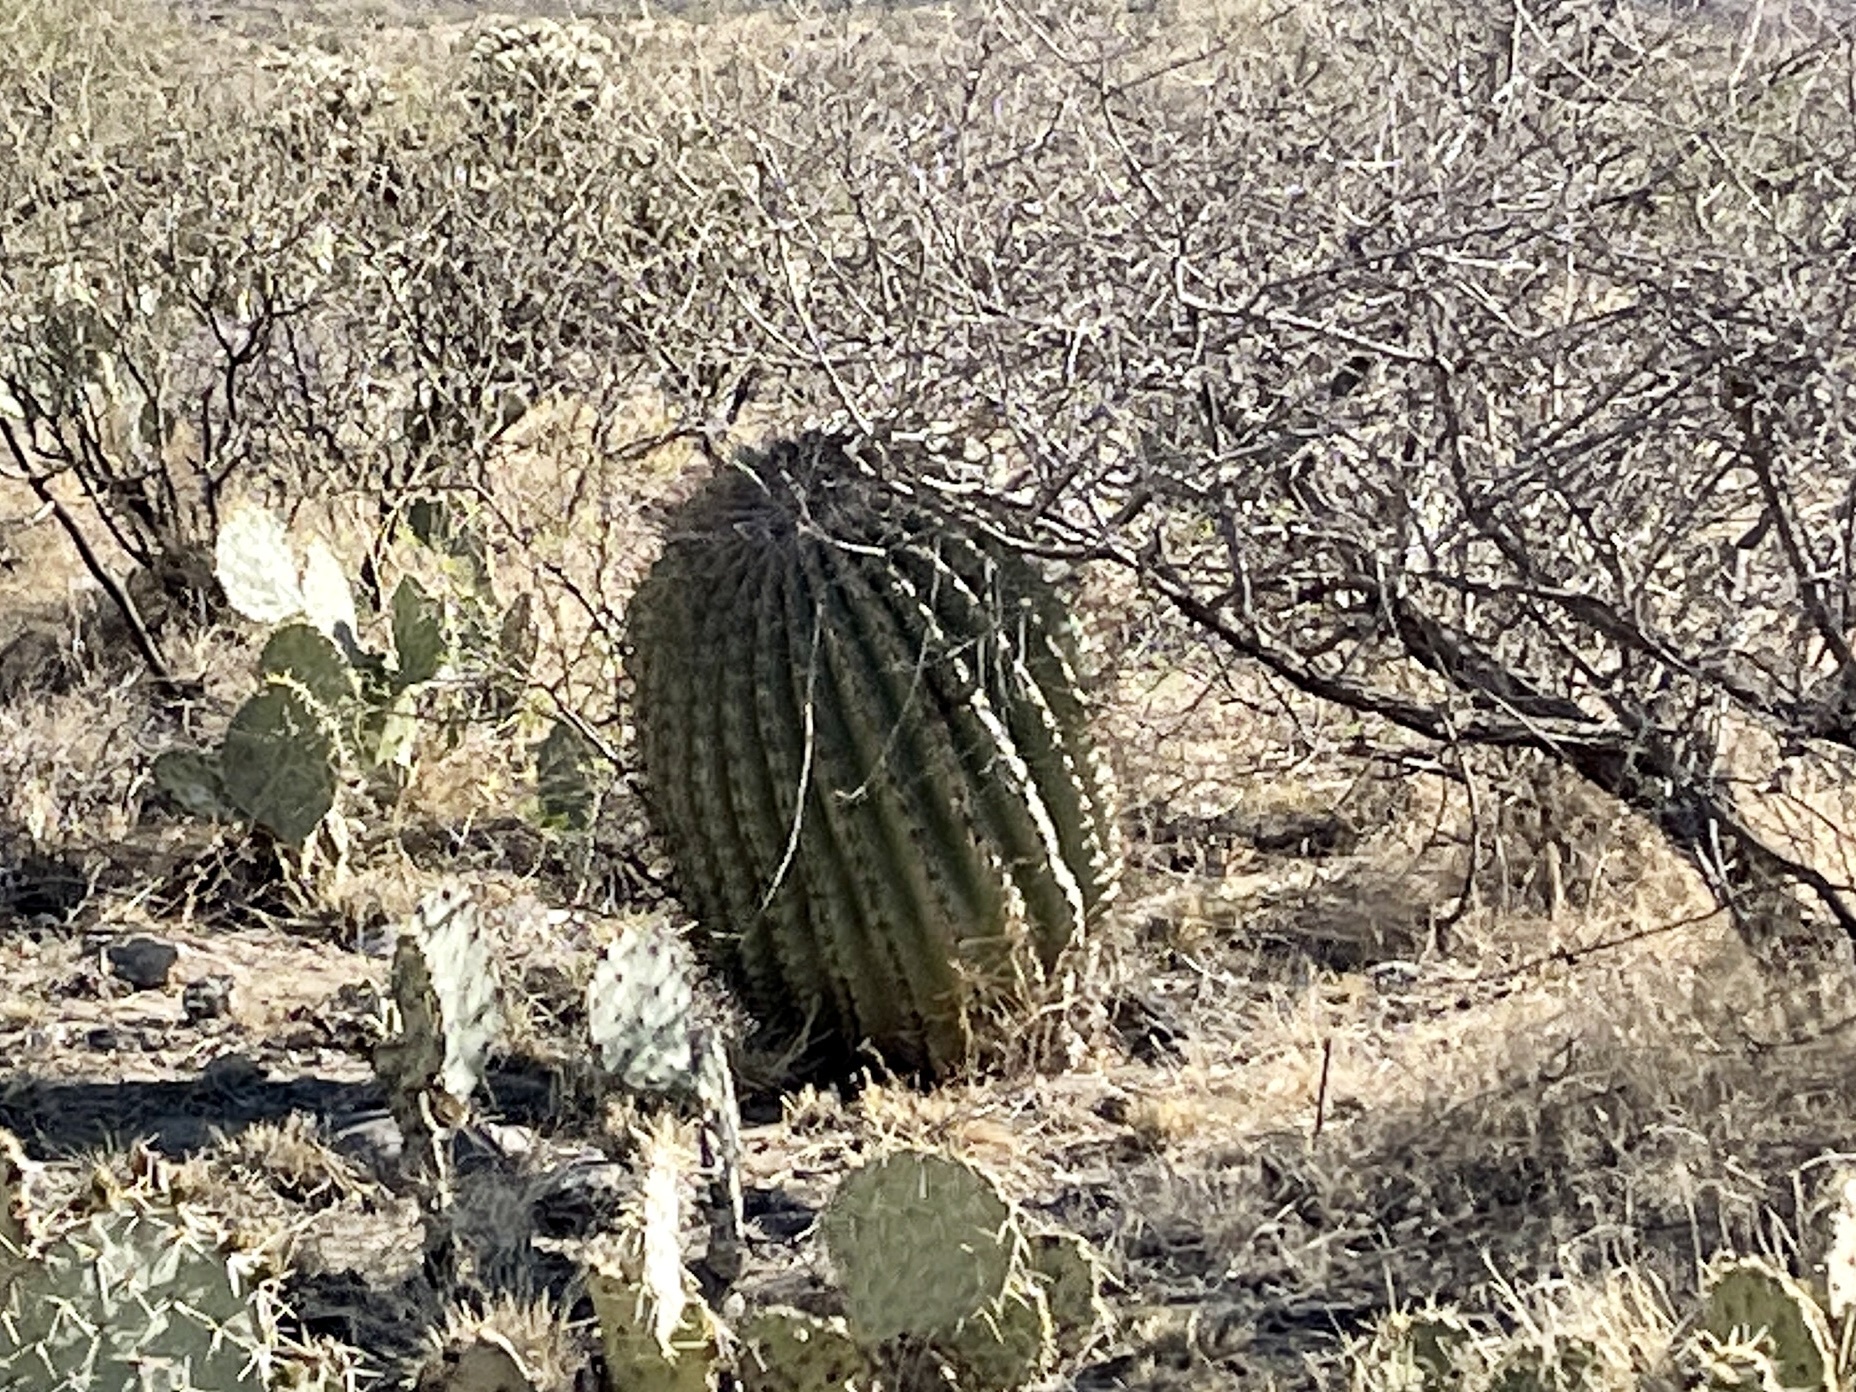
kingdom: Plantae
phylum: Tracheophyta
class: Magnoliopsida
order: Caryophyllales
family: Cactaceae
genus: Ferocactus
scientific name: Ferocactus wislizeni
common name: Candy barrel cactus
